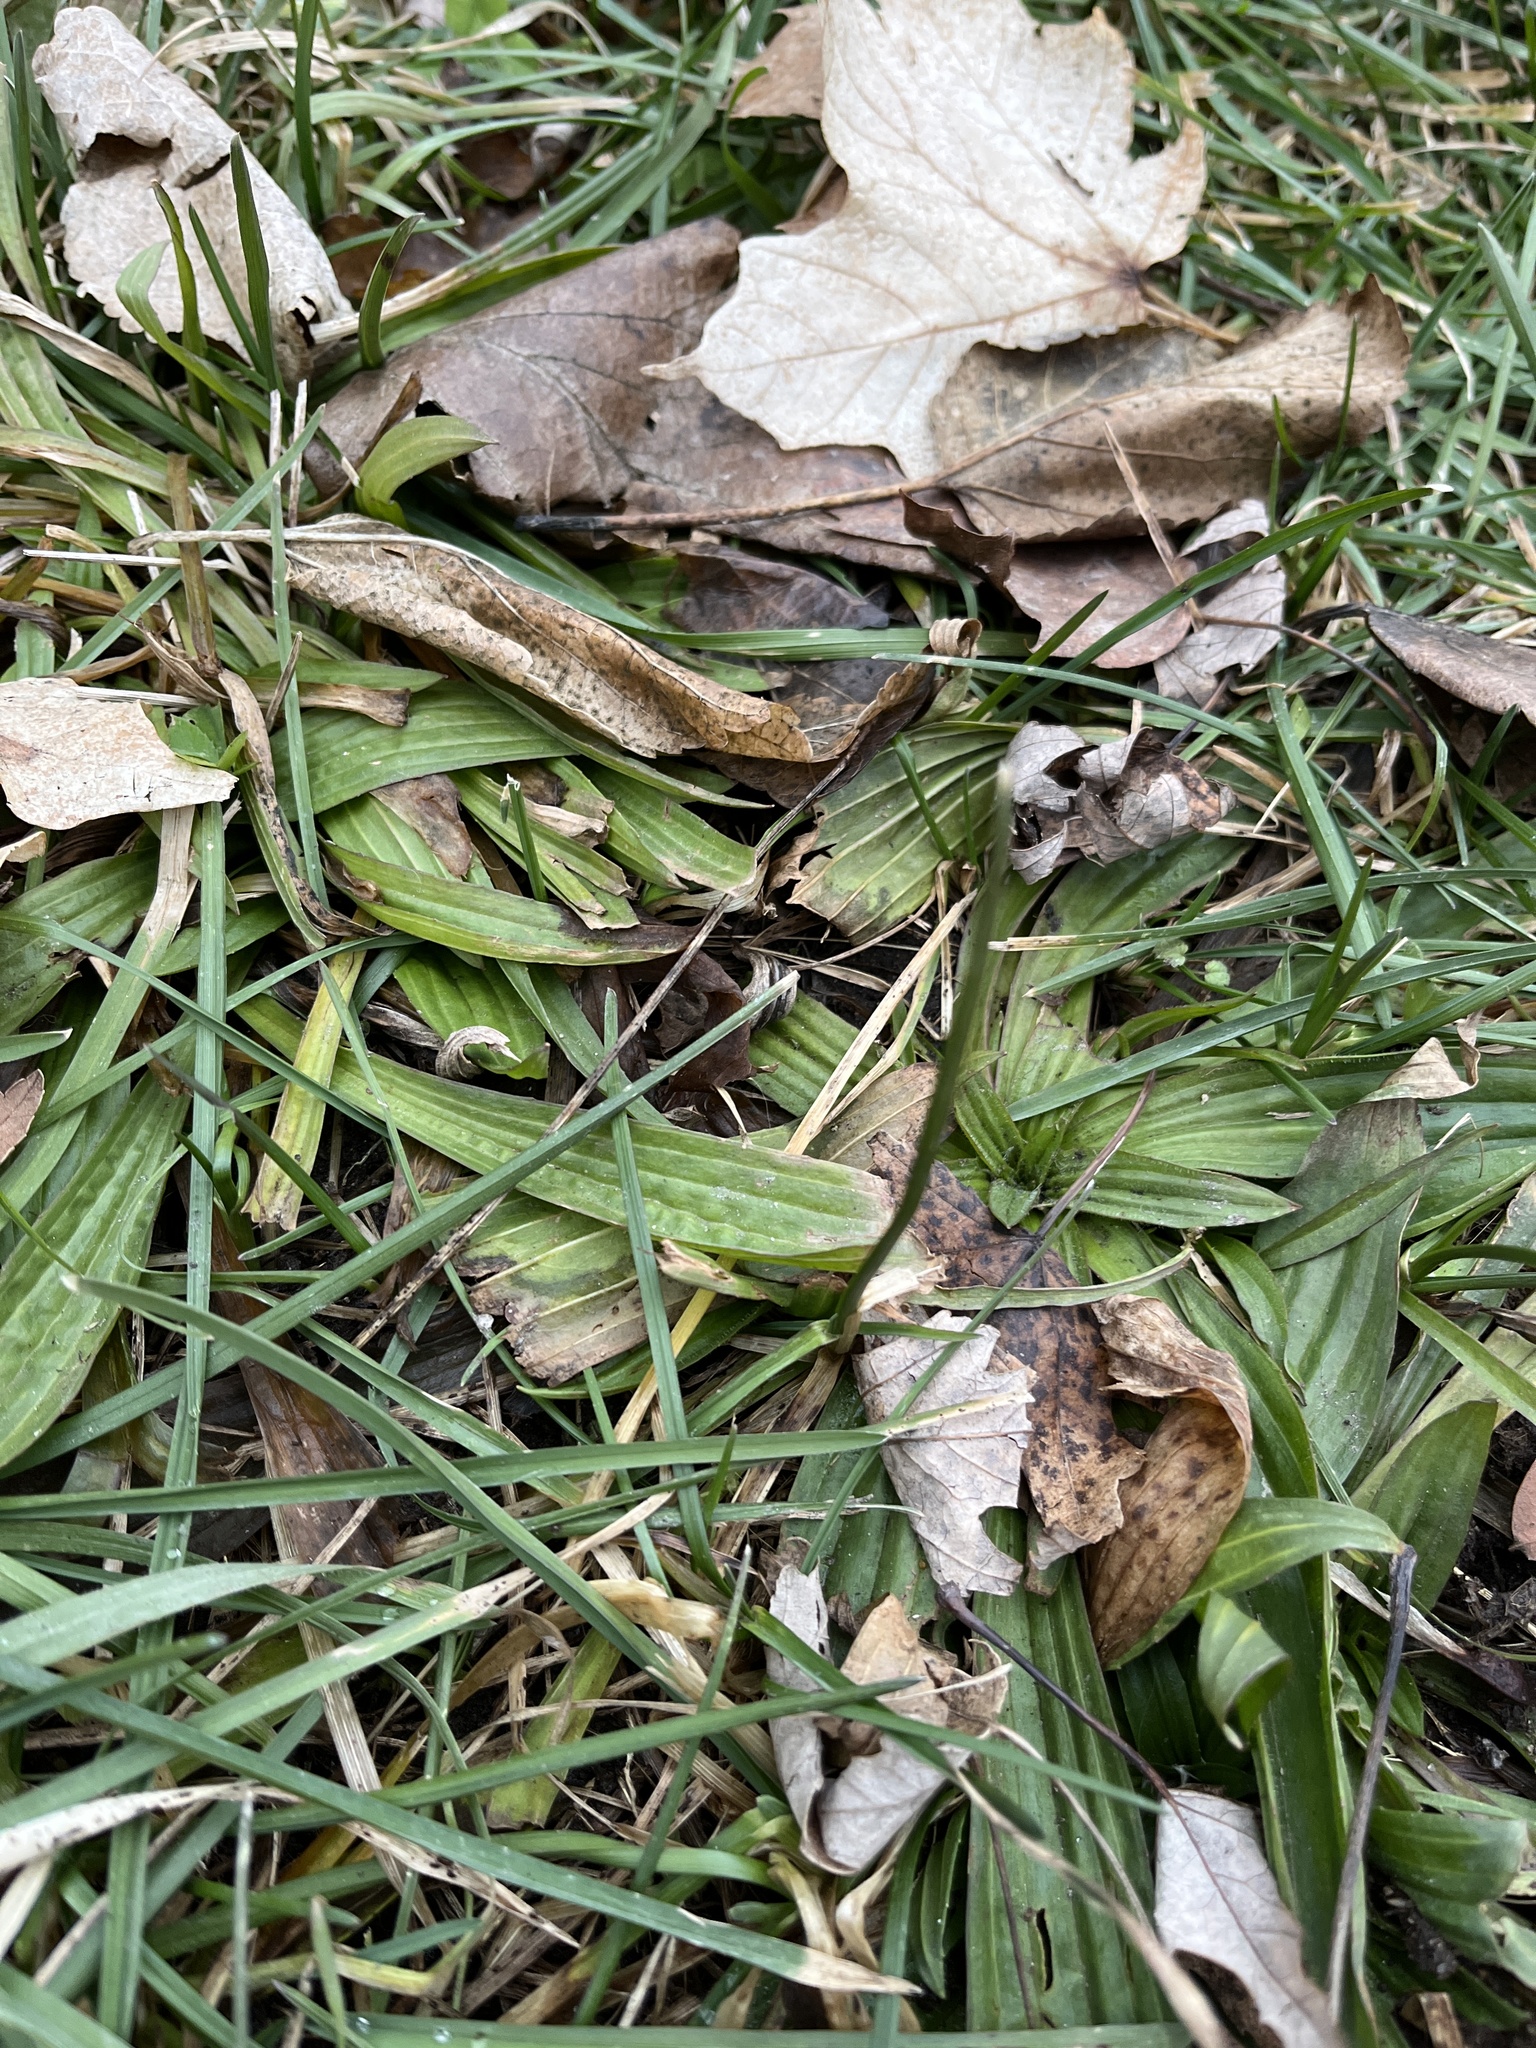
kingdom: Plantae
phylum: Tracheophyta
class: Magnoliopsida
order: Lamiales
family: Plantaginaceae
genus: Plantago
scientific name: Plantago lanceolata
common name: Ribwort plantain
